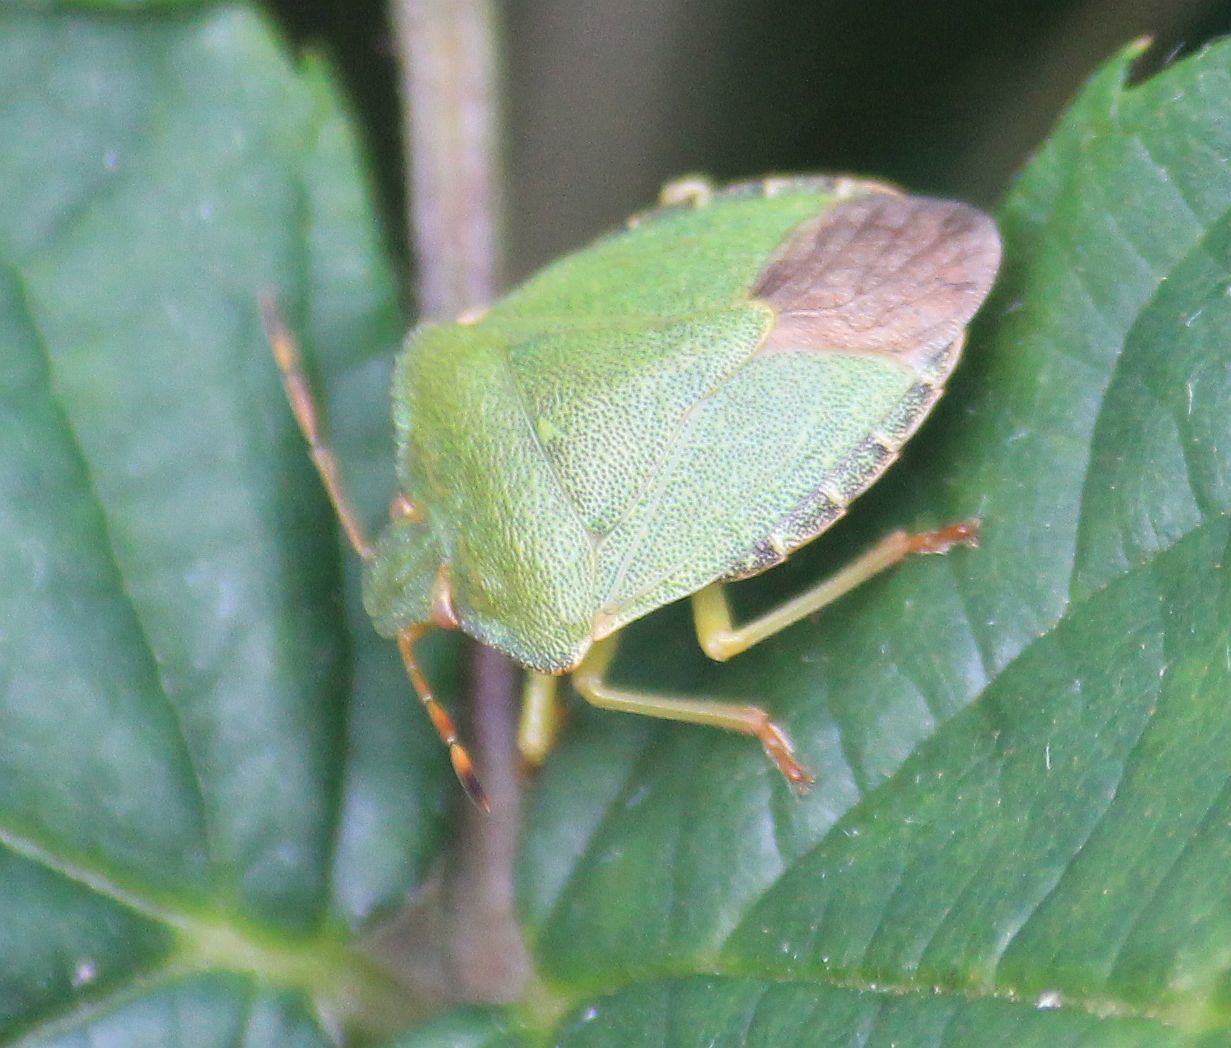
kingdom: Animalia
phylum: Arthropoda
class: Insecta
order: Hemiptera
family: Pentatomidae
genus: Palomena
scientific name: Palomena prasina
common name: Green shieldbug
